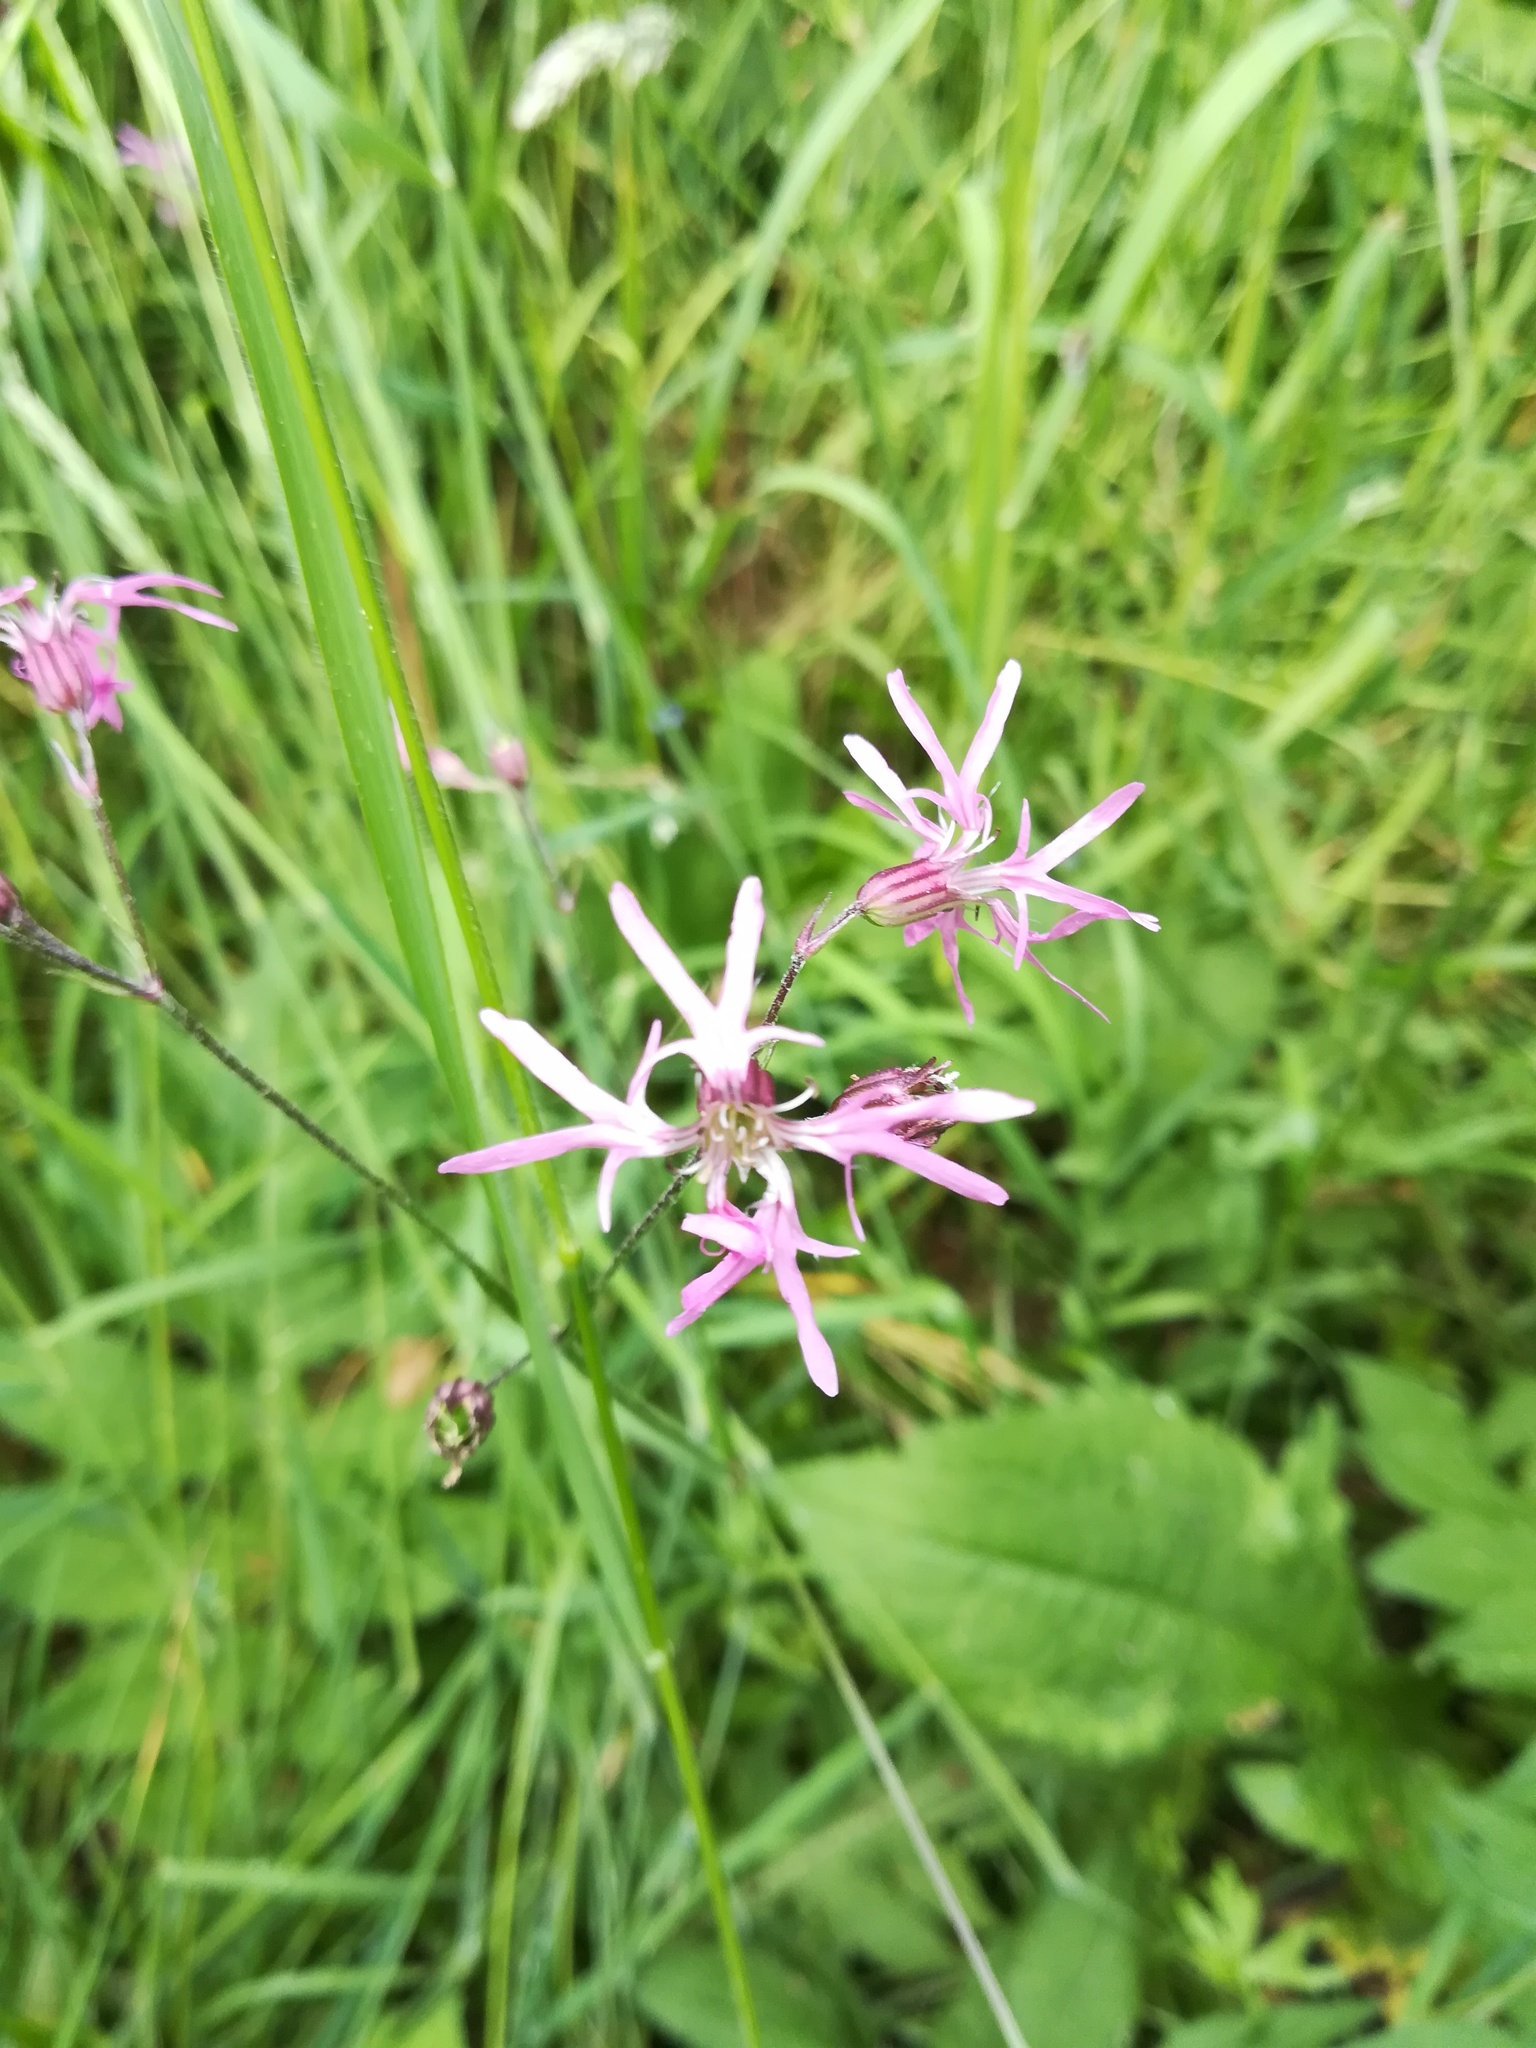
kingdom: Plantae
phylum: Tracheophyta
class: Magnoliopsida
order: Caryophyllales
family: Caryophyllaceae
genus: Silene
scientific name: Silene flos-cuculi
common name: Ragged-robin
